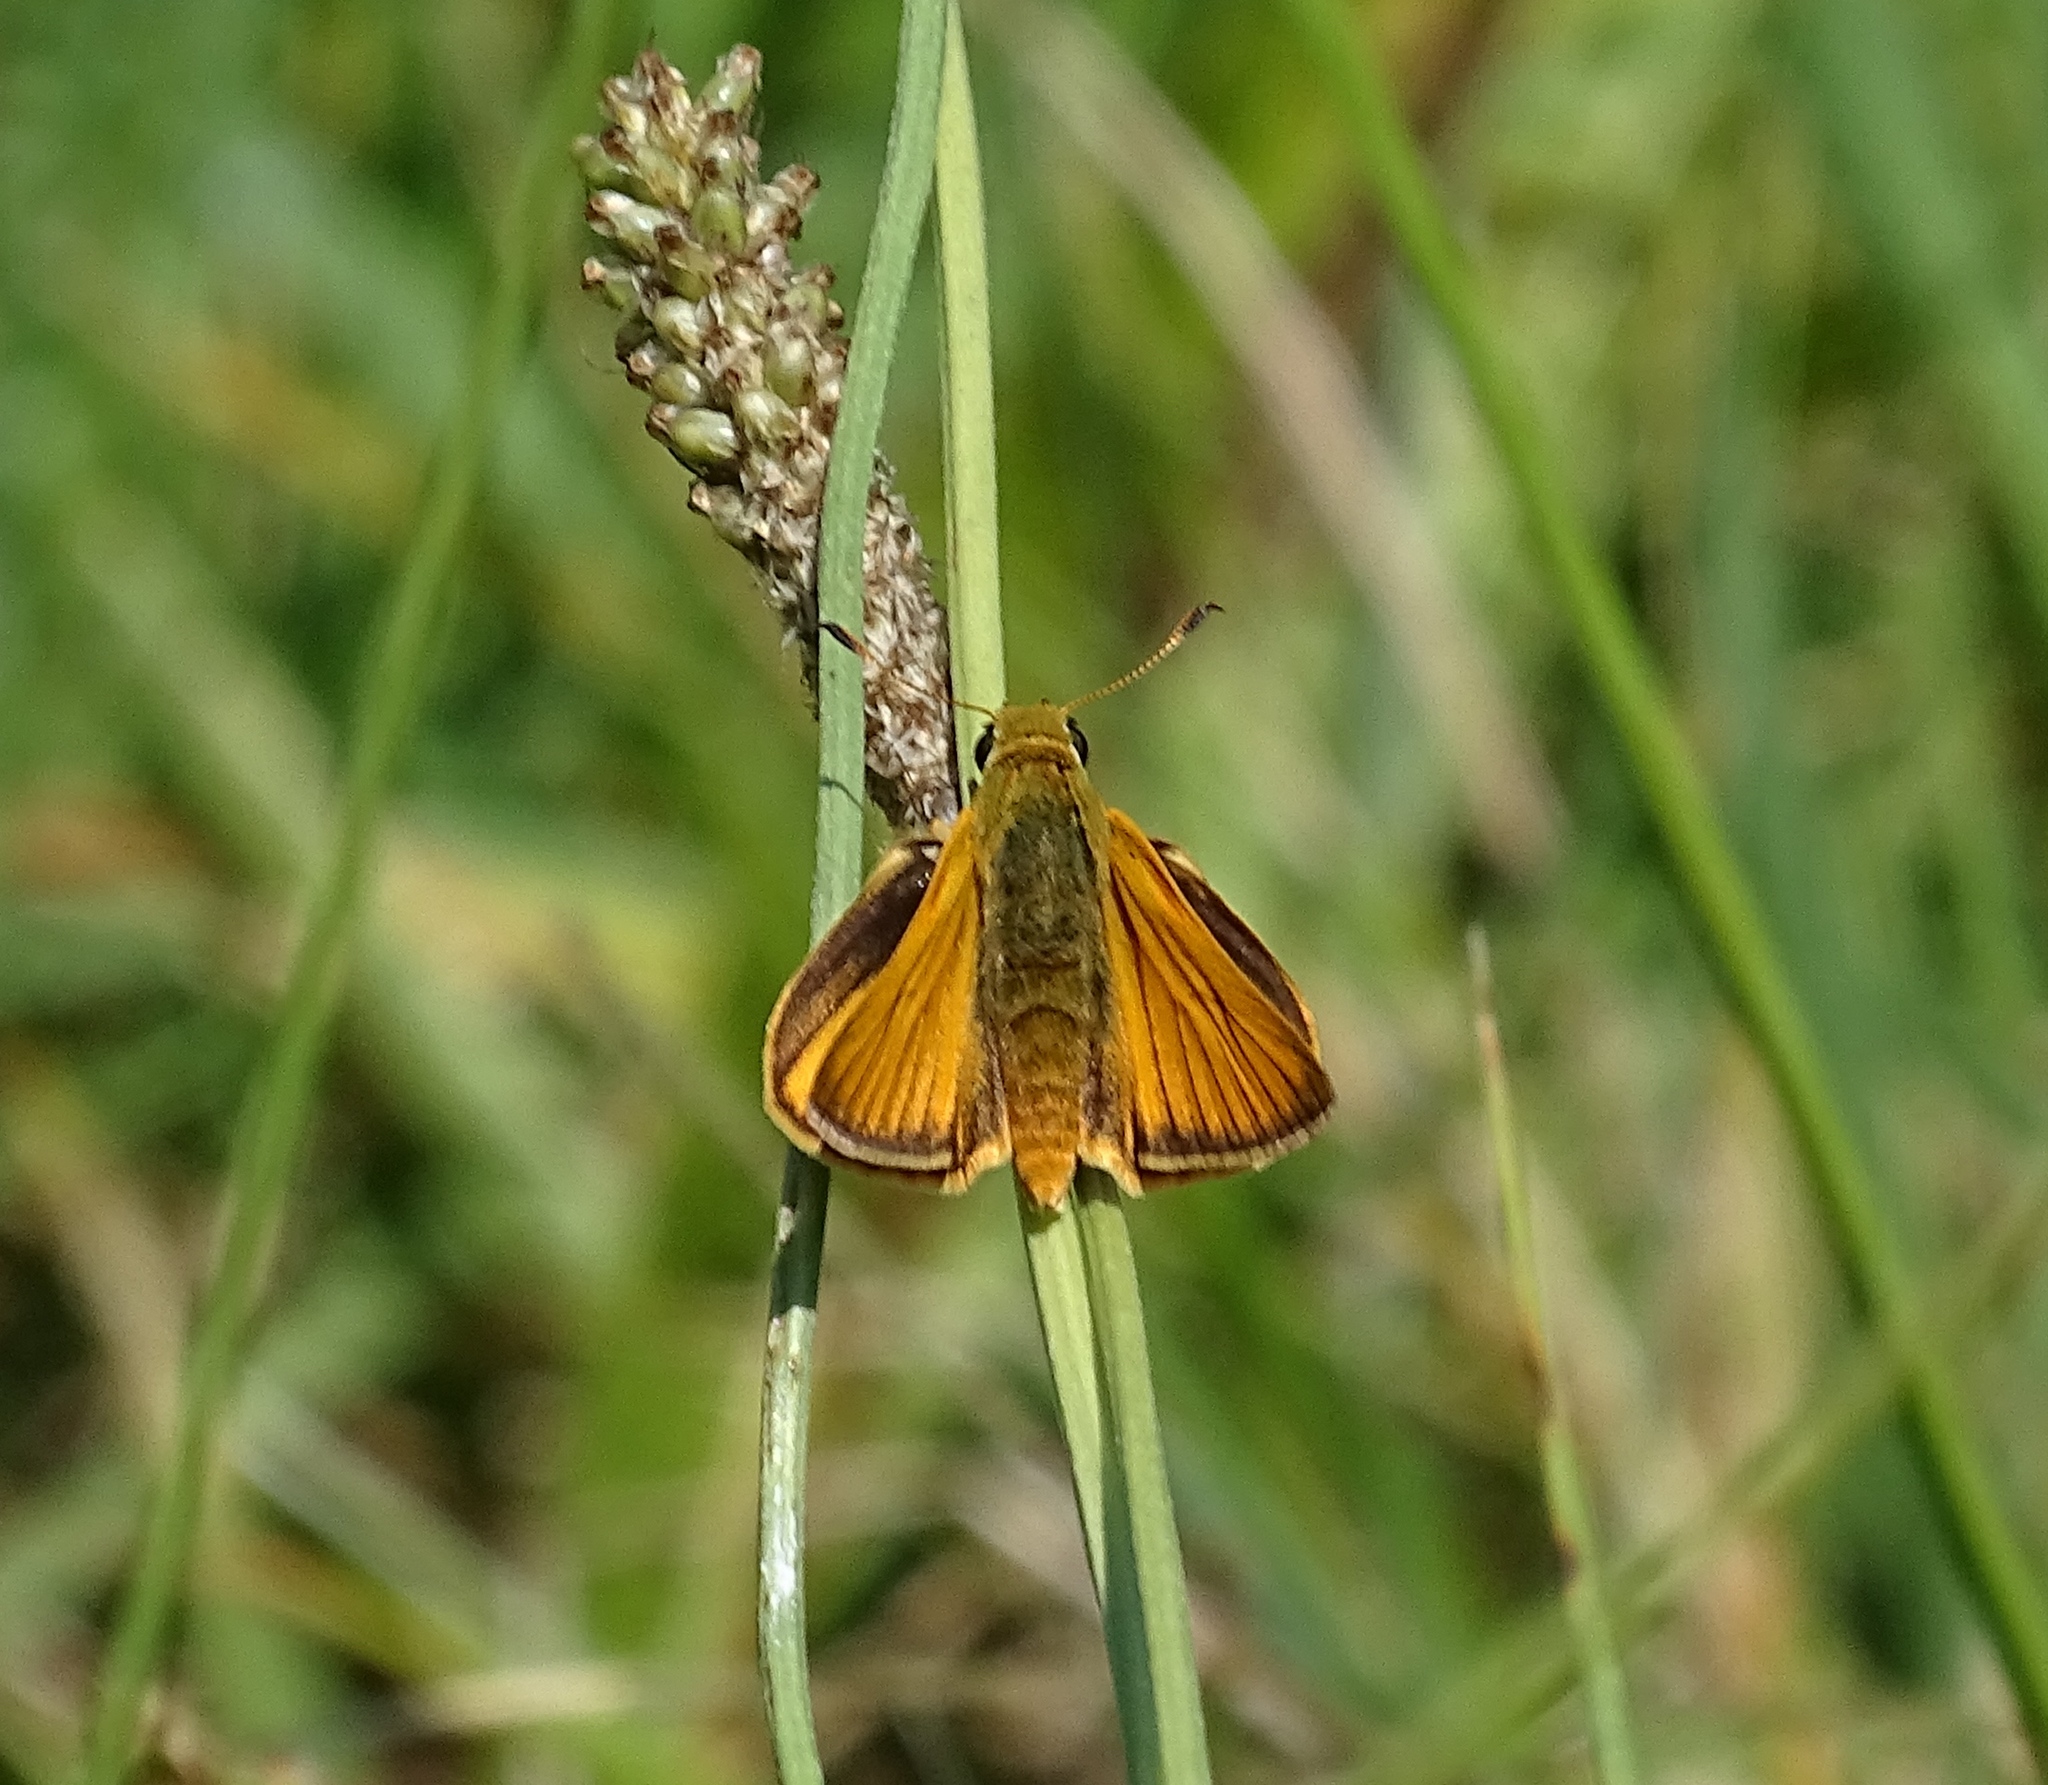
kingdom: Animalia
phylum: Arthropoda
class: Insecta
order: Lepidoptera
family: Hesperiidae
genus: Atrytone
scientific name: Atrytone delaware
